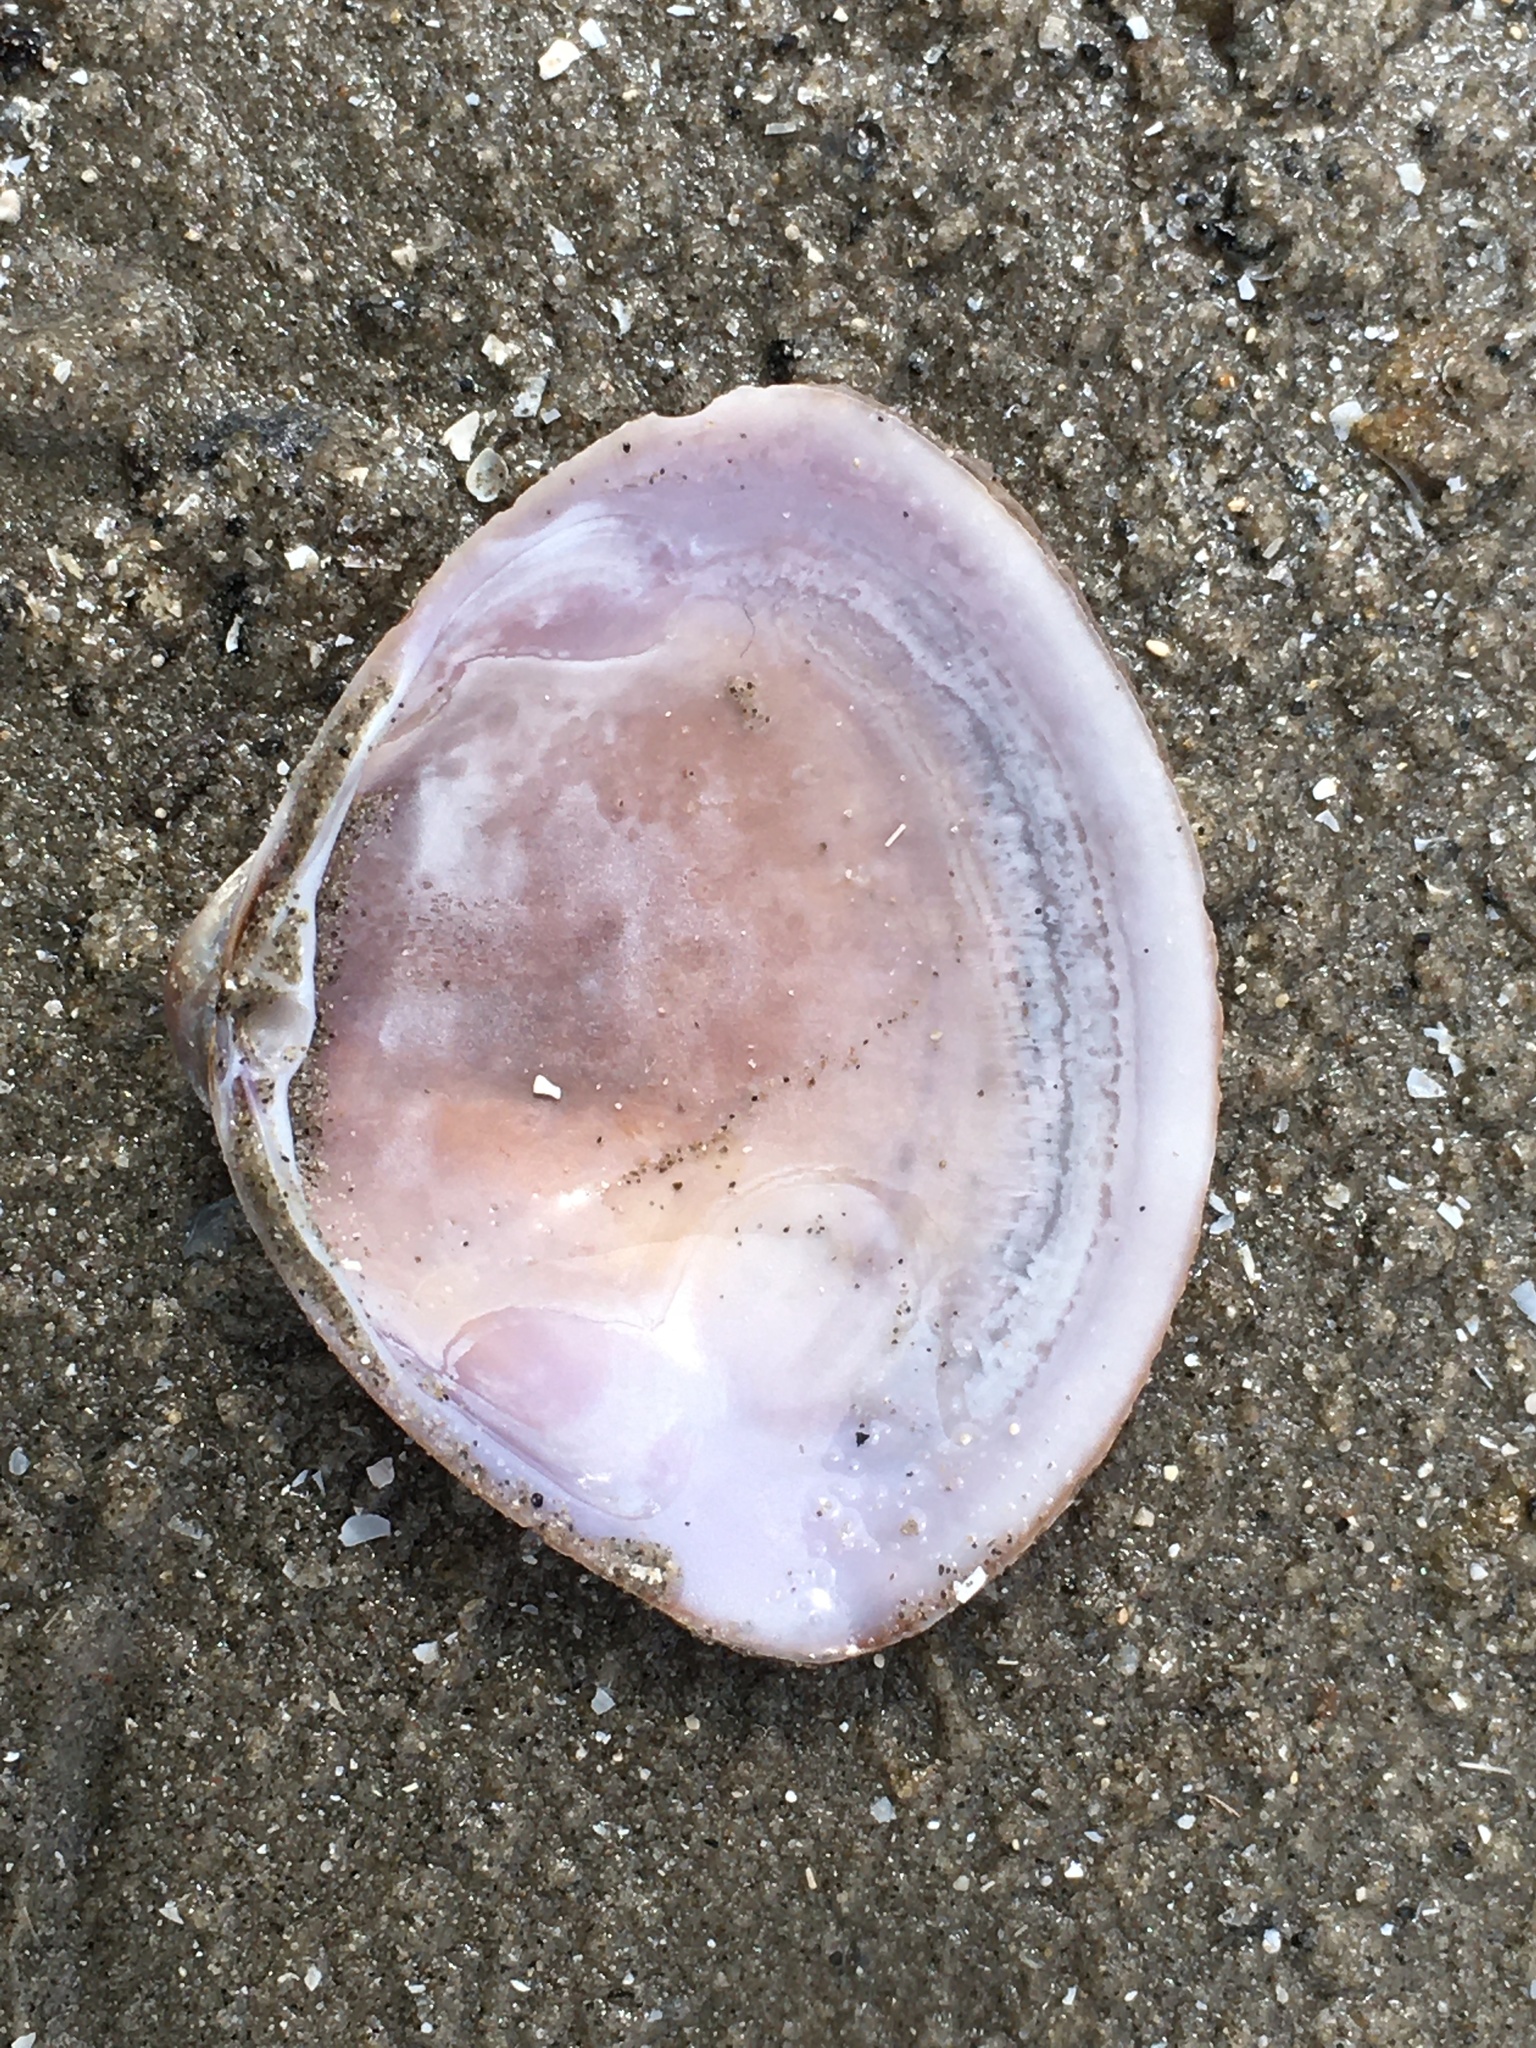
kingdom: Animalia
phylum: Mollusca
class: Bivalvia
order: Venerida
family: Mactridae
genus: Mactra
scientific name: Mactra stultorum
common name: Rayed trough shell
